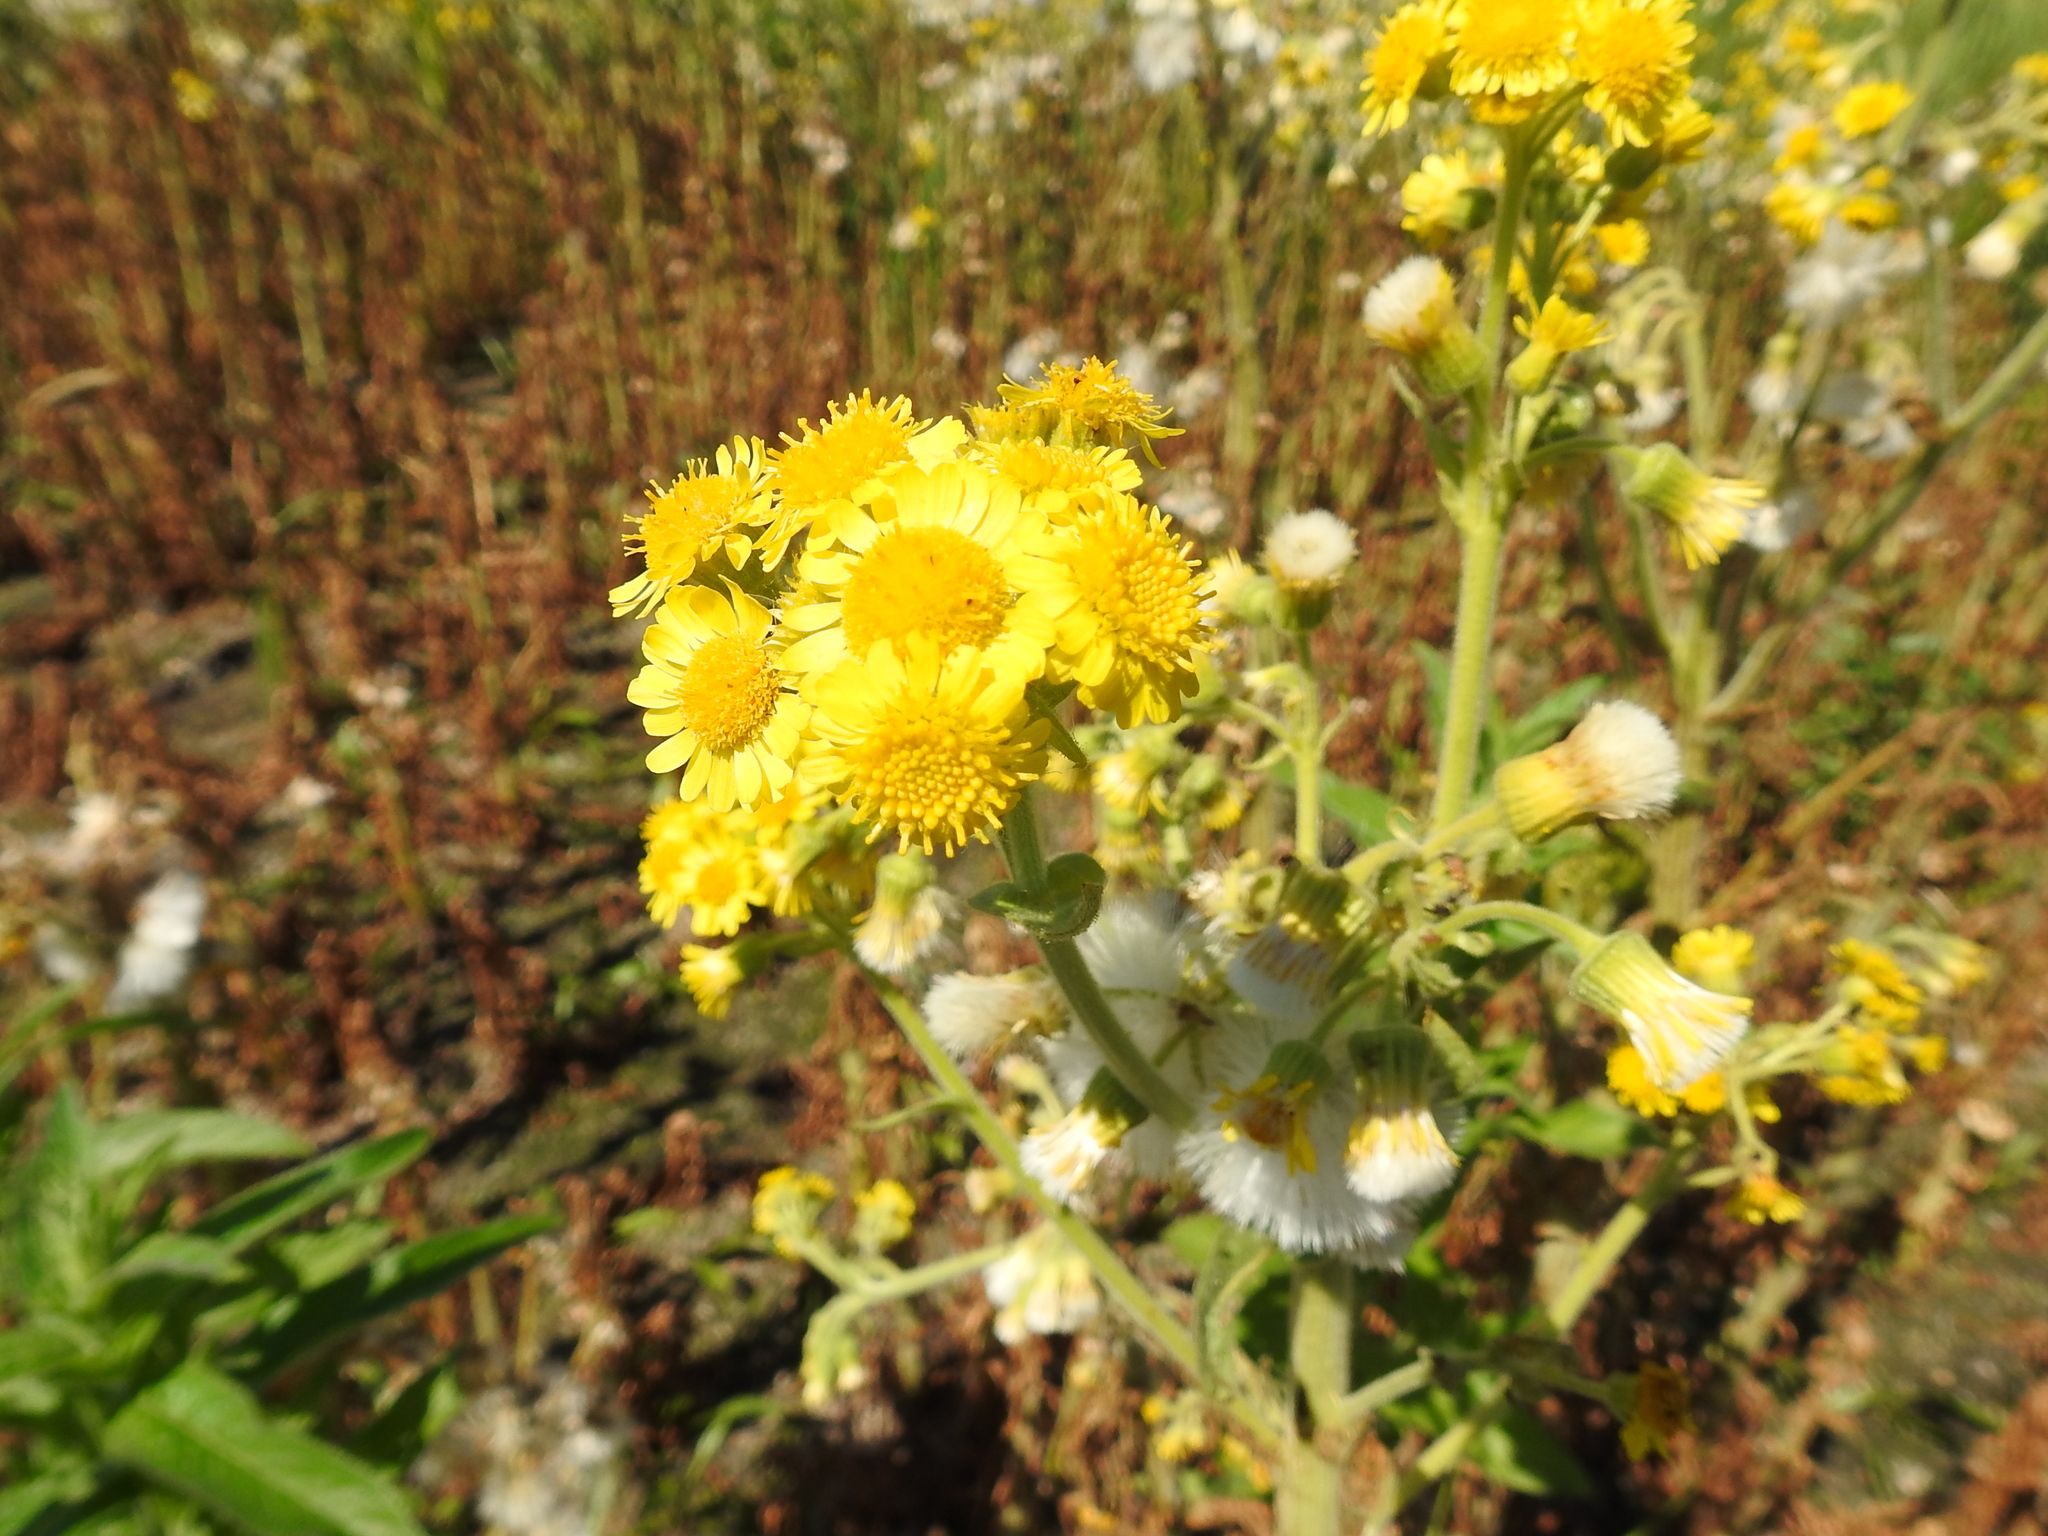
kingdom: Plantae
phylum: Tracheophyta
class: Magnoliopsida
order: Asterales
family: Asteraceae
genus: Tephroseris
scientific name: Tephroseris palustris
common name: Marsh fleawort
